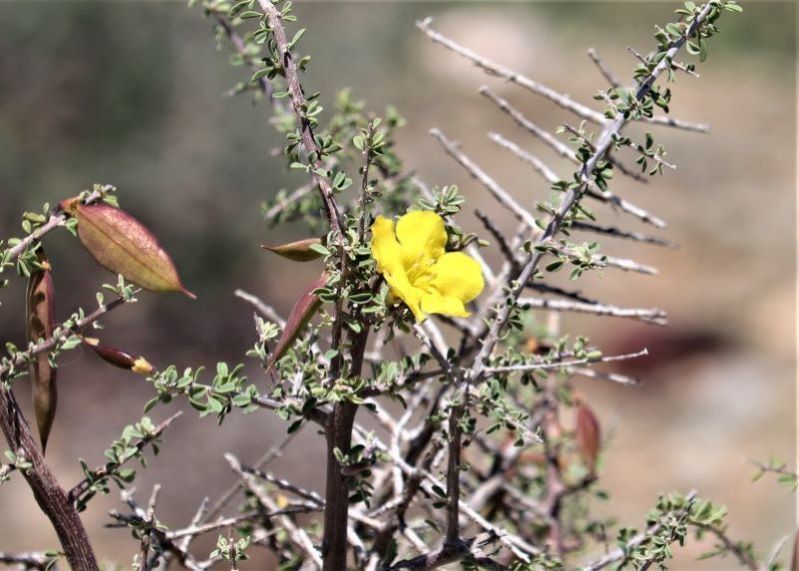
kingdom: Plantae
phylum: Tracheophyta
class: Magnoliopsida
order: Lamiales
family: Bignoniaceae
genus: Rhigozum
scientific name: Rhigozum obovatum
